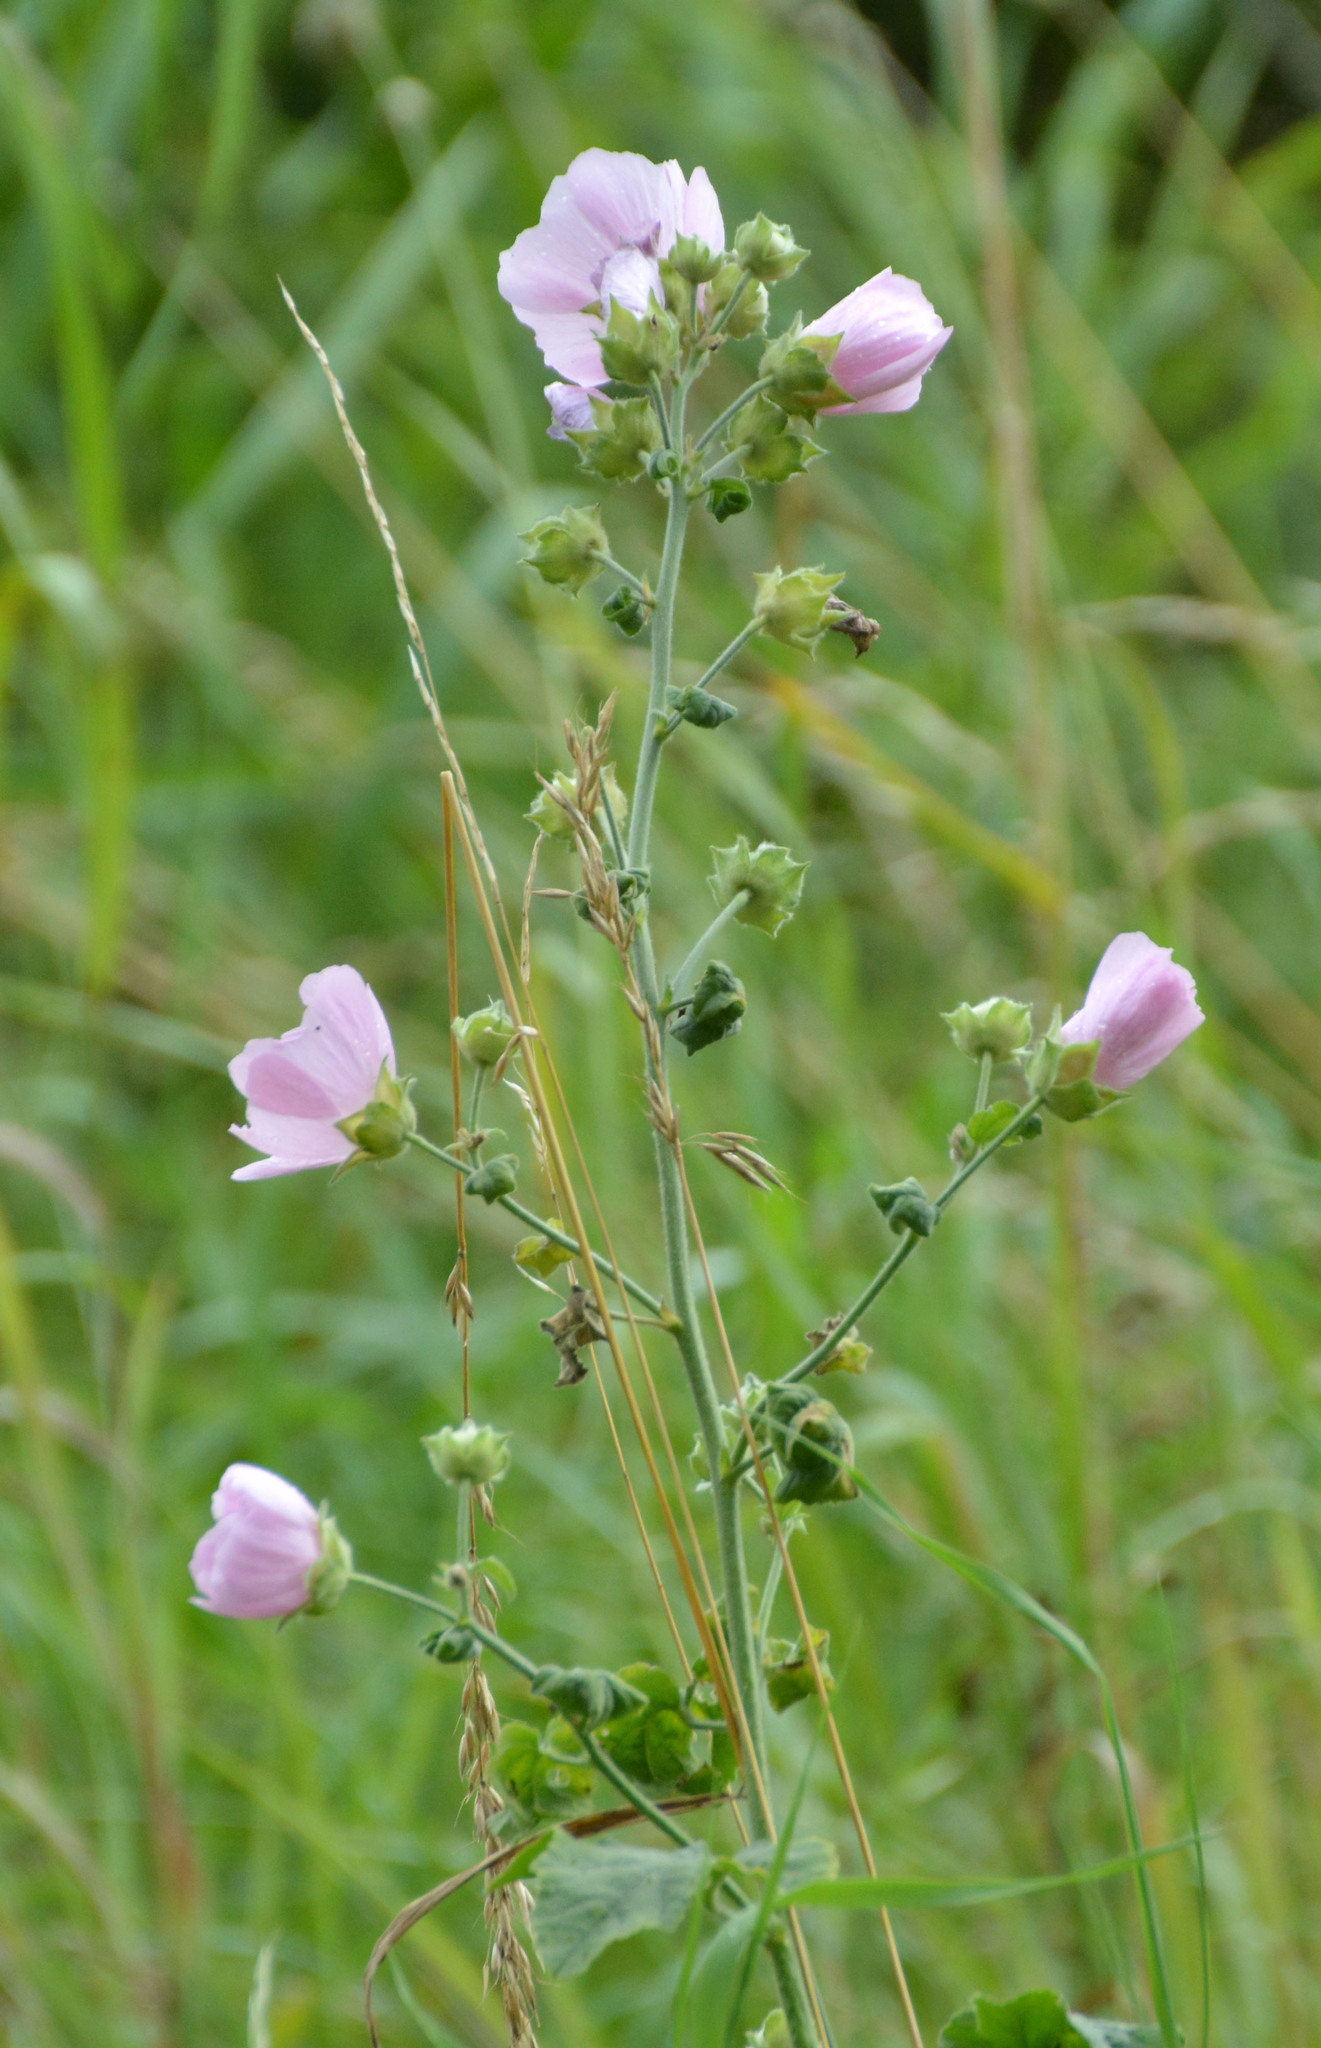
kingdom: Plantae
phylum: Tracheophyta
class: Magnoliopsida
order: Malvales
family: Malvaceae
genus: Malva
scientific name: Malva thuringiaca
